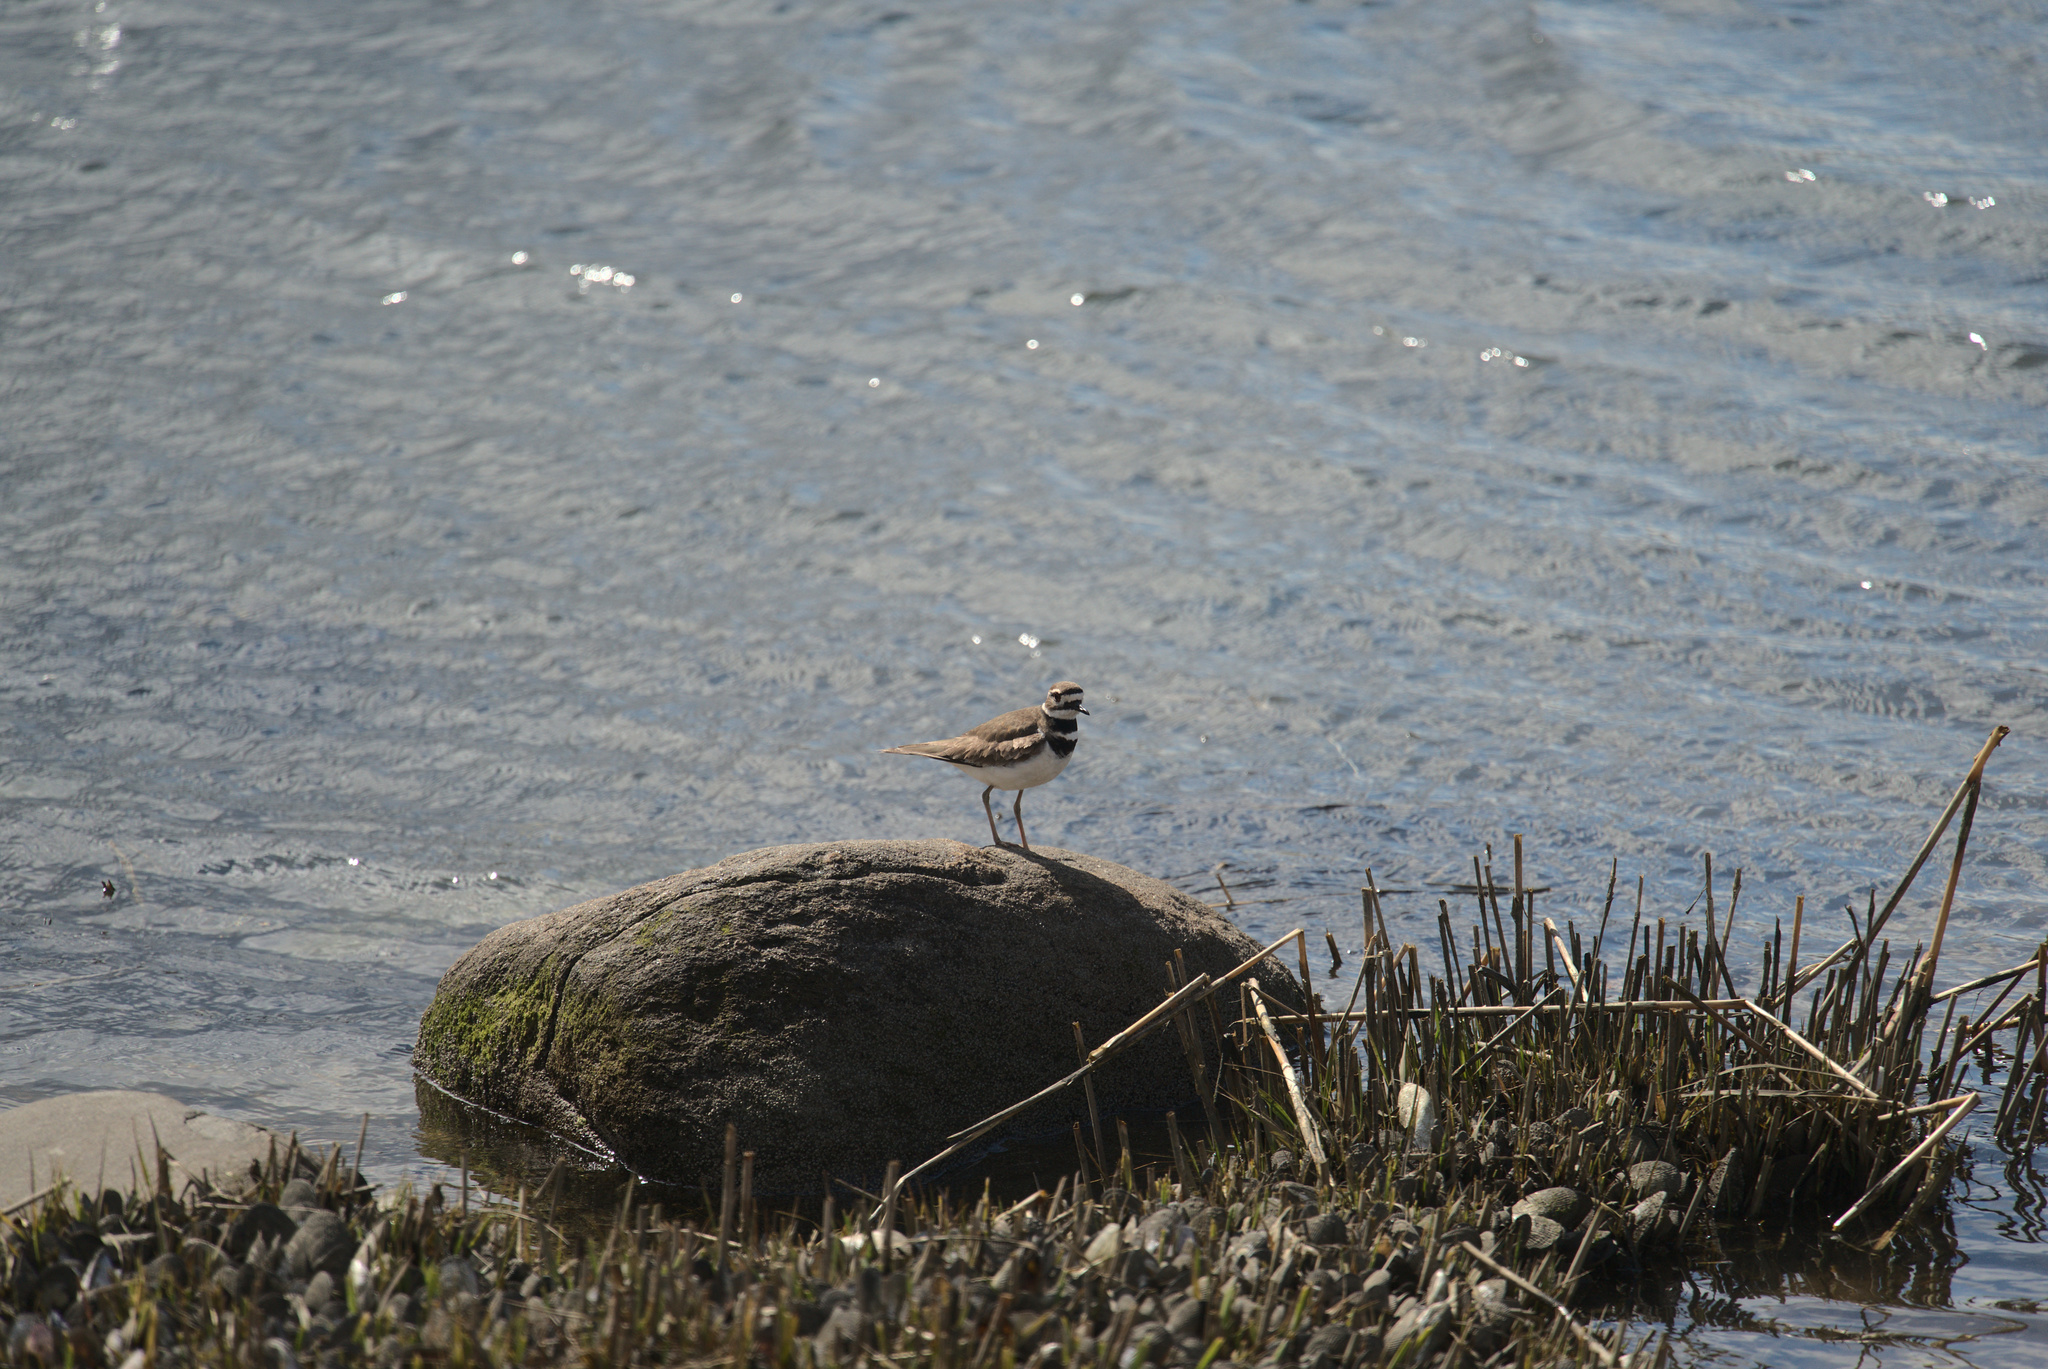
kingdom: Animalia
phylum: Chordata
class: Aves
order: Charadriiformes
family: Charadriidae
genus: Charadrius
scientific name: Charadrius vociferus
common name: Killdeer
